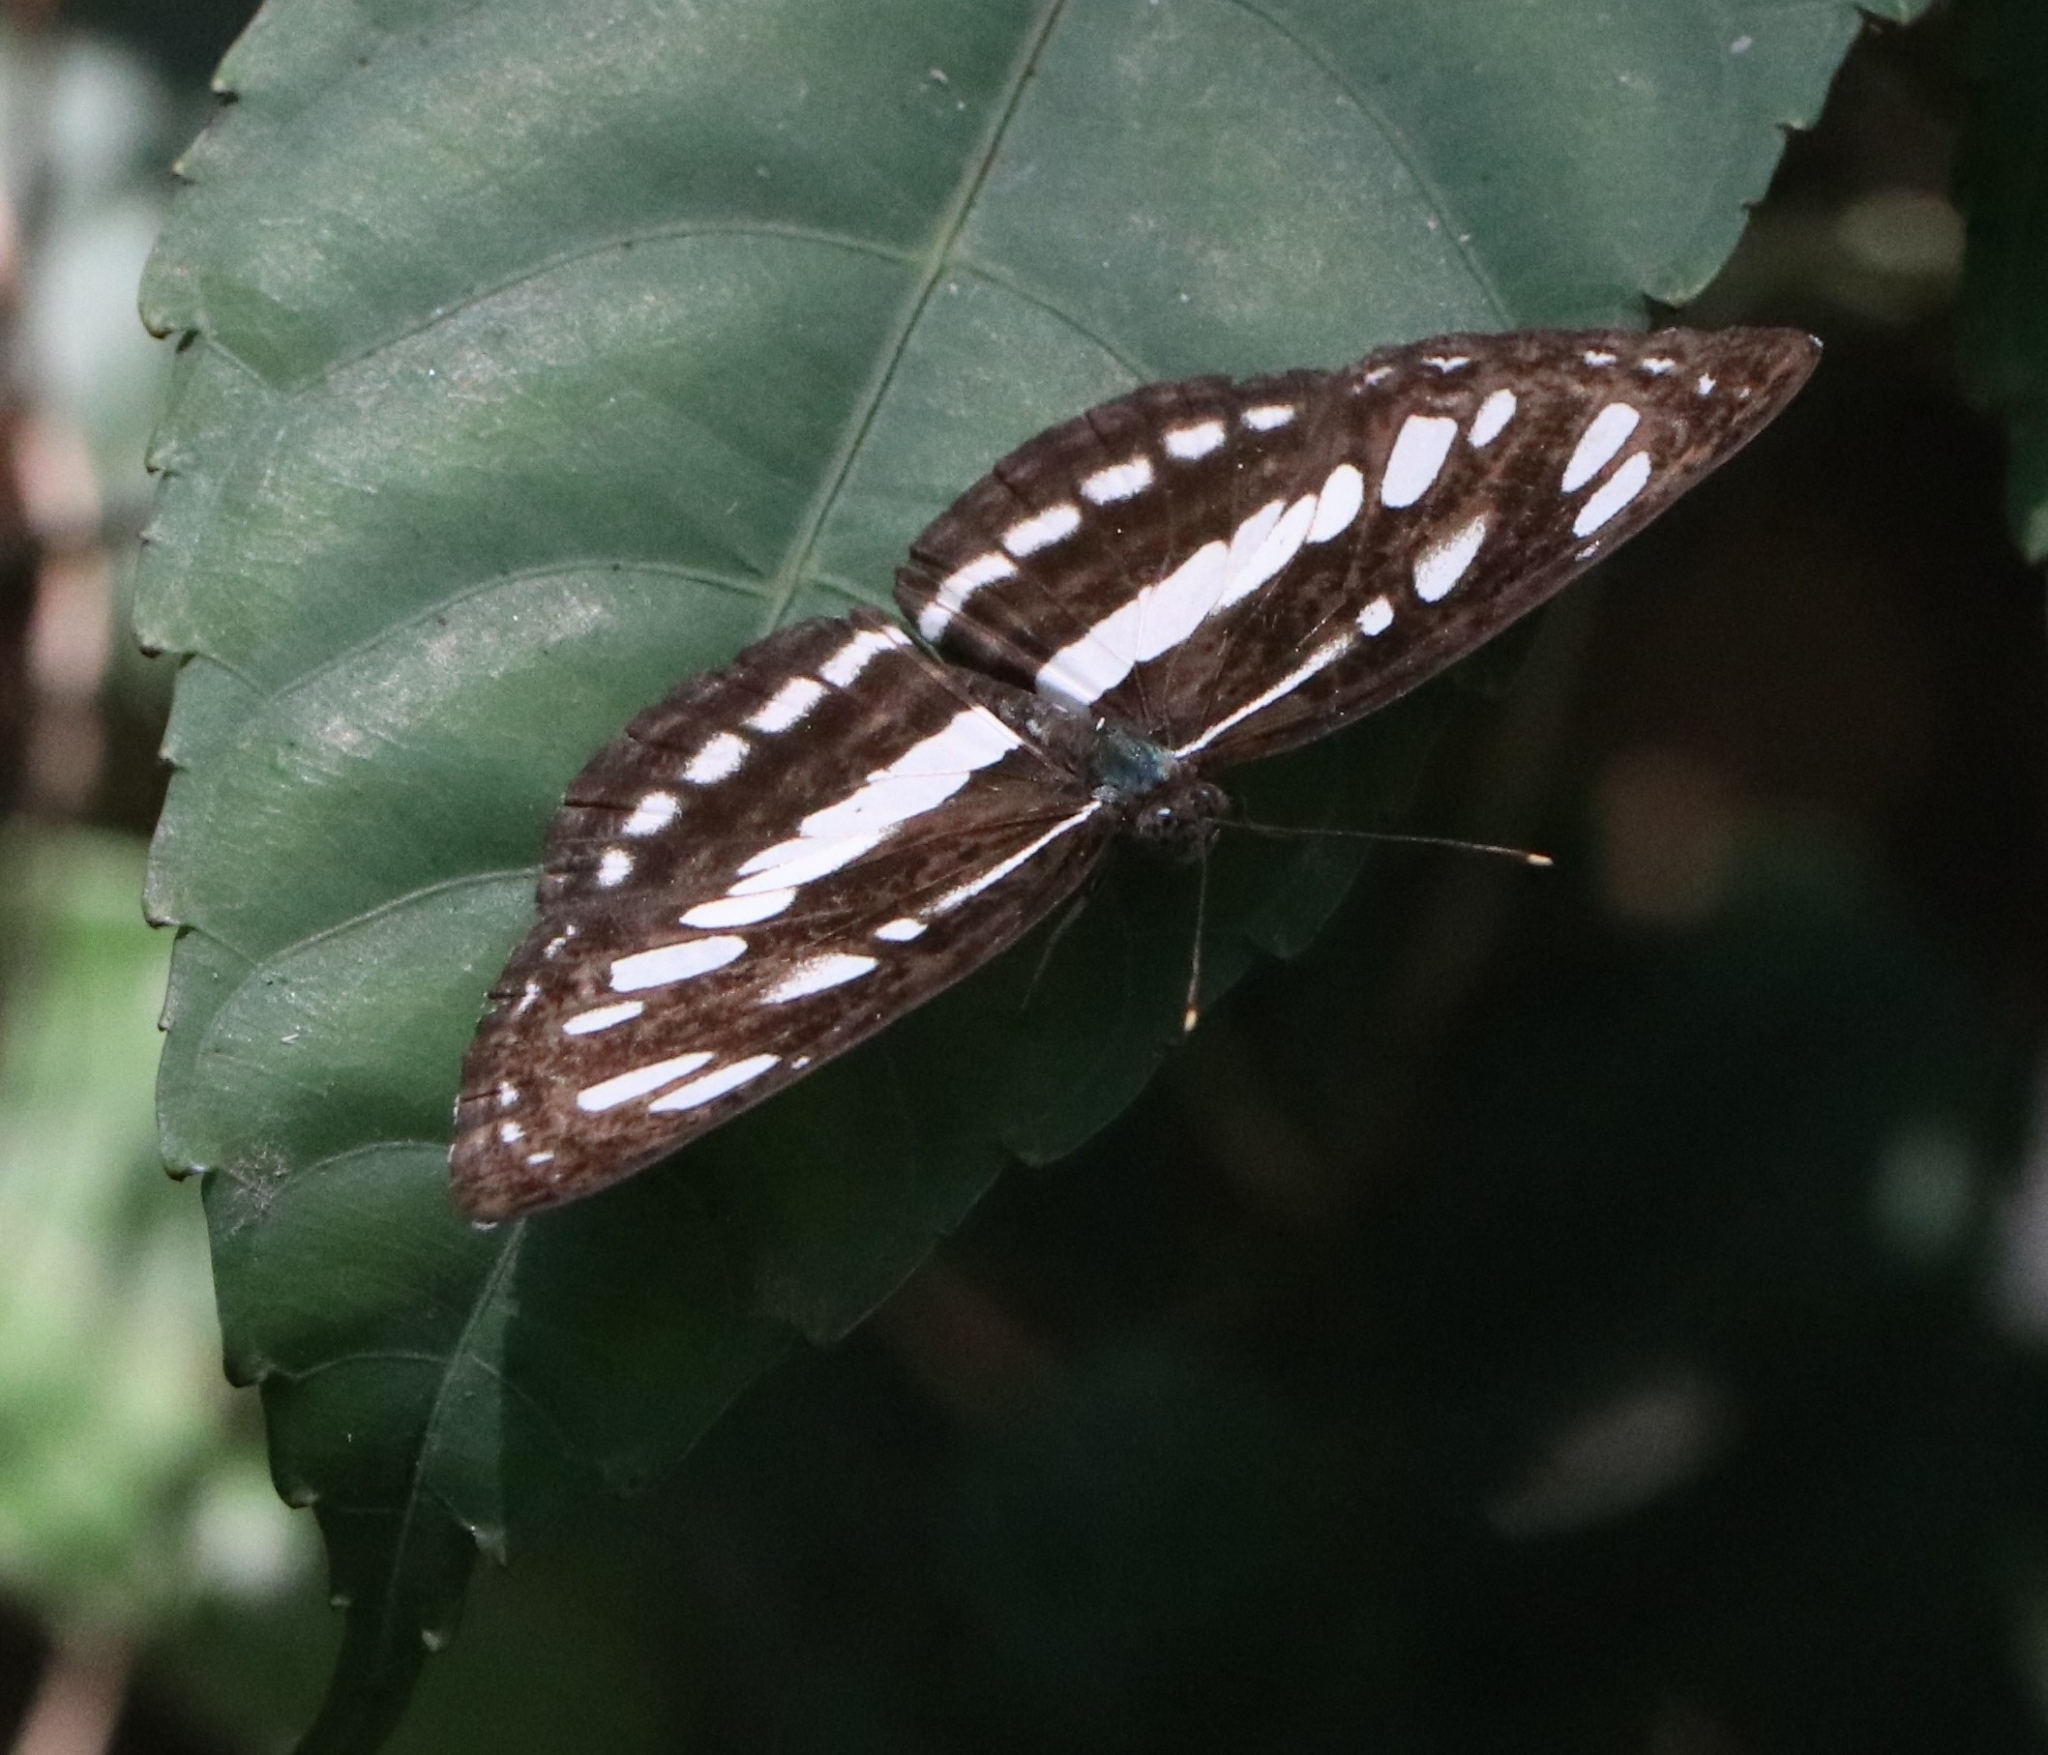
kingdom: Animalia
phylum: Arthropoda
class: Insecta
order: Lepidoptera
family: Nymphalidae
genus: Neptis
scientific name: Neptis hylas
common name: Common sailer
